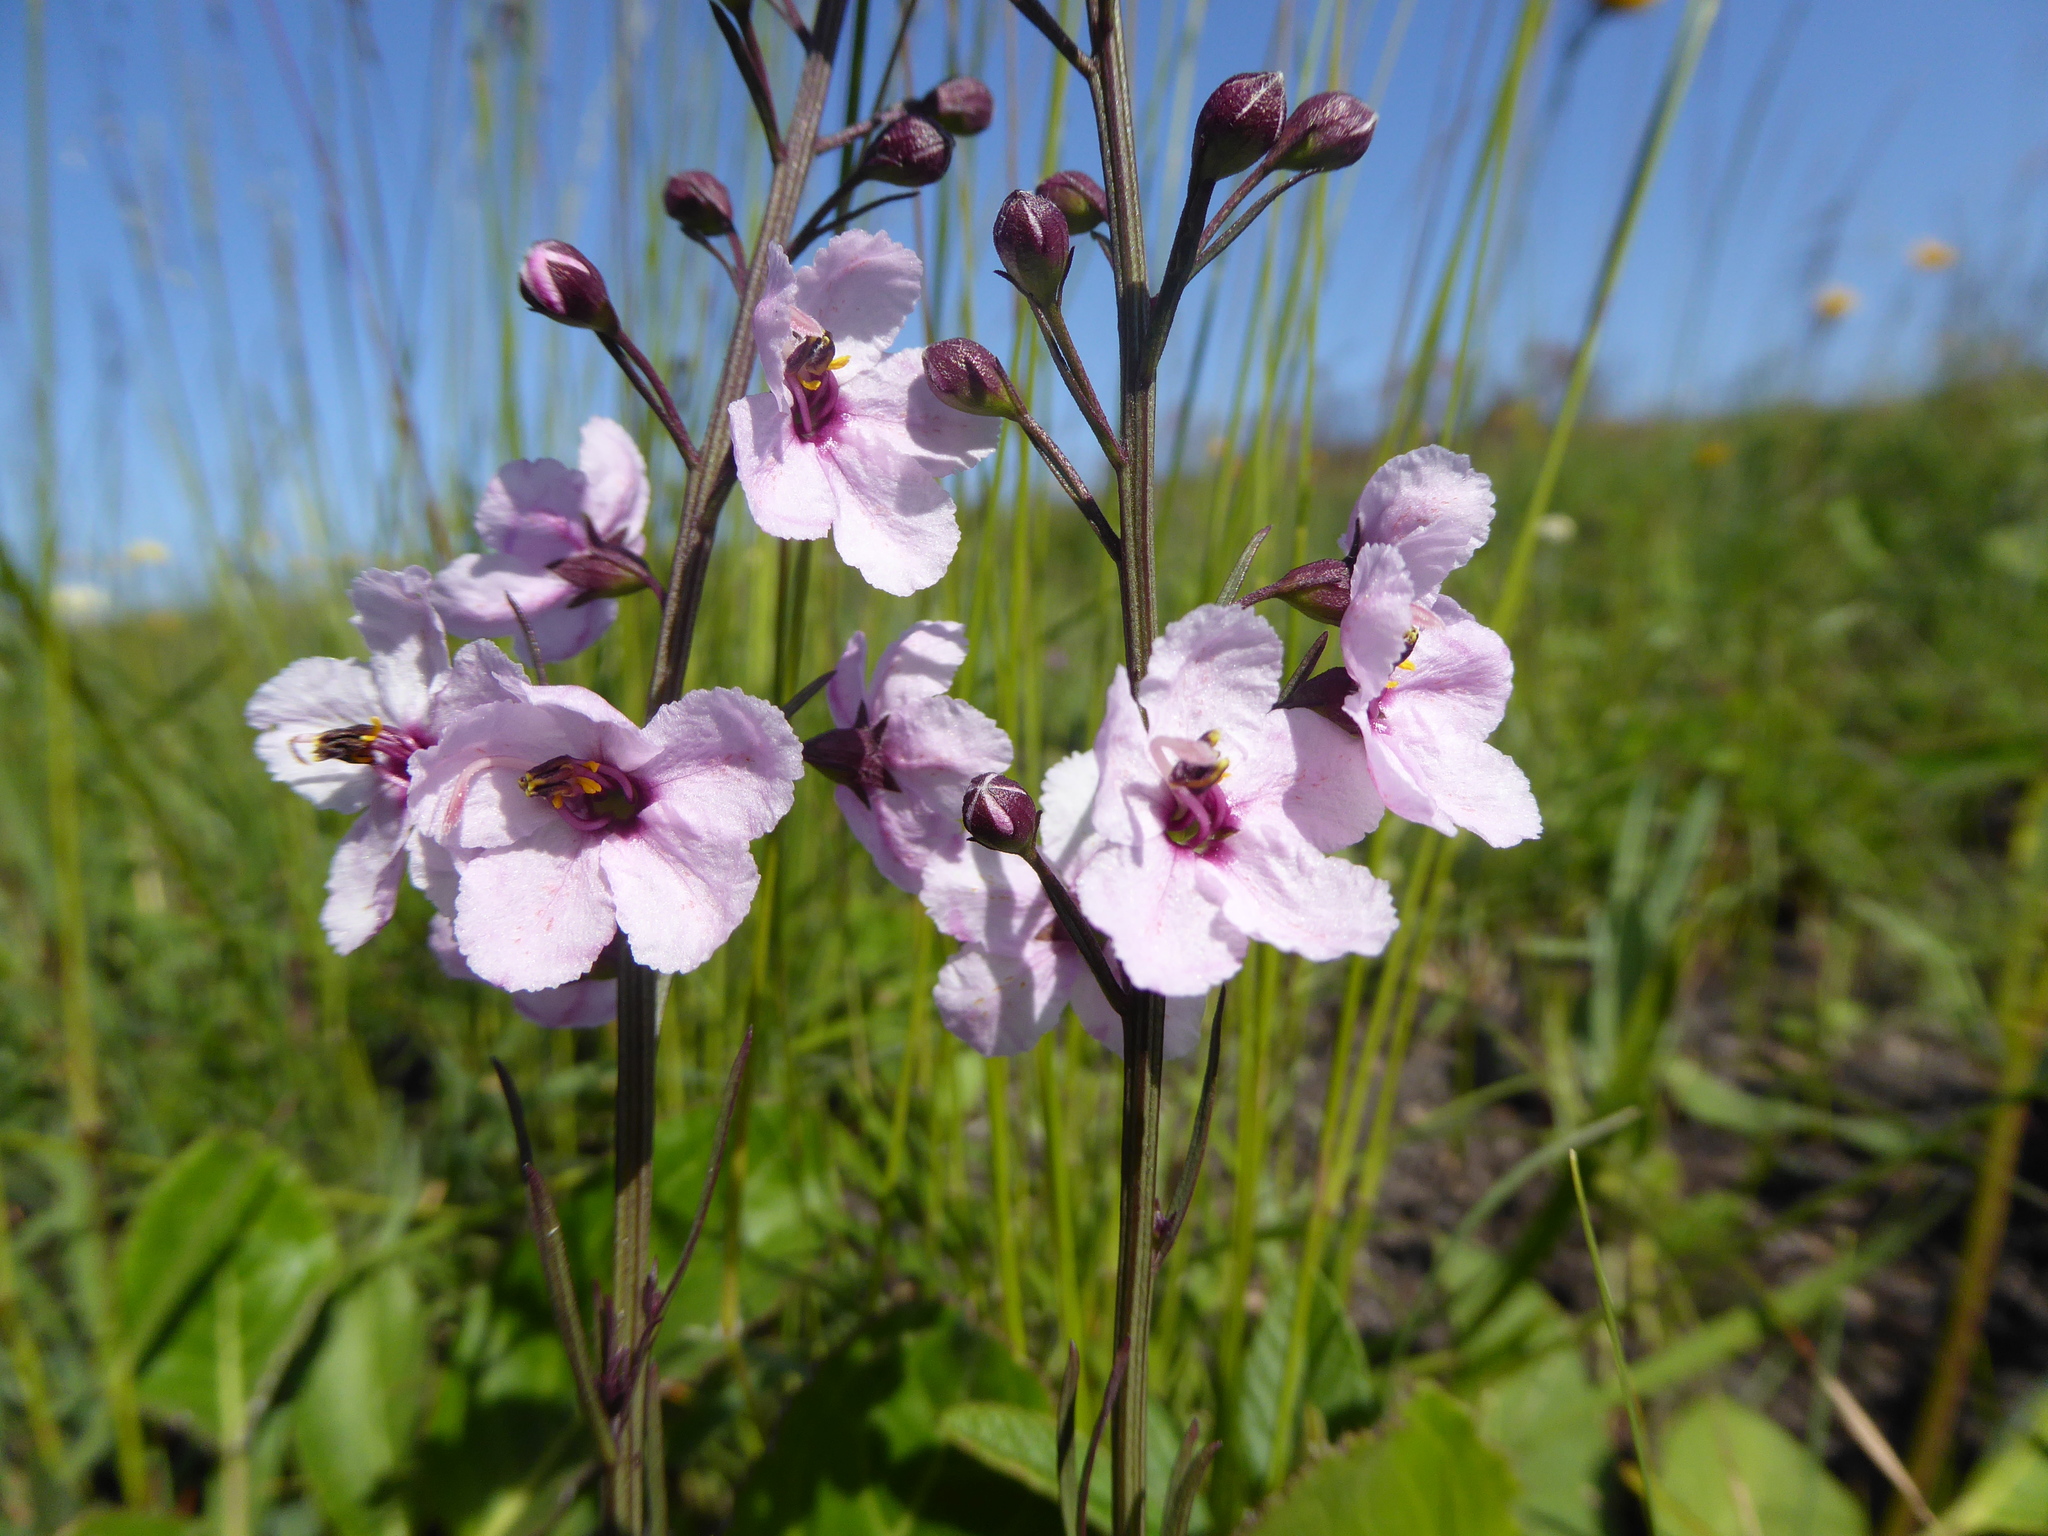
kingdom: Plantae
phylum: Tracheophyta
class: Magnoliopsida
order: Lamiales
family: Orobanchaceae
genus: Sopubia
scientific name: Sopubia simplex
